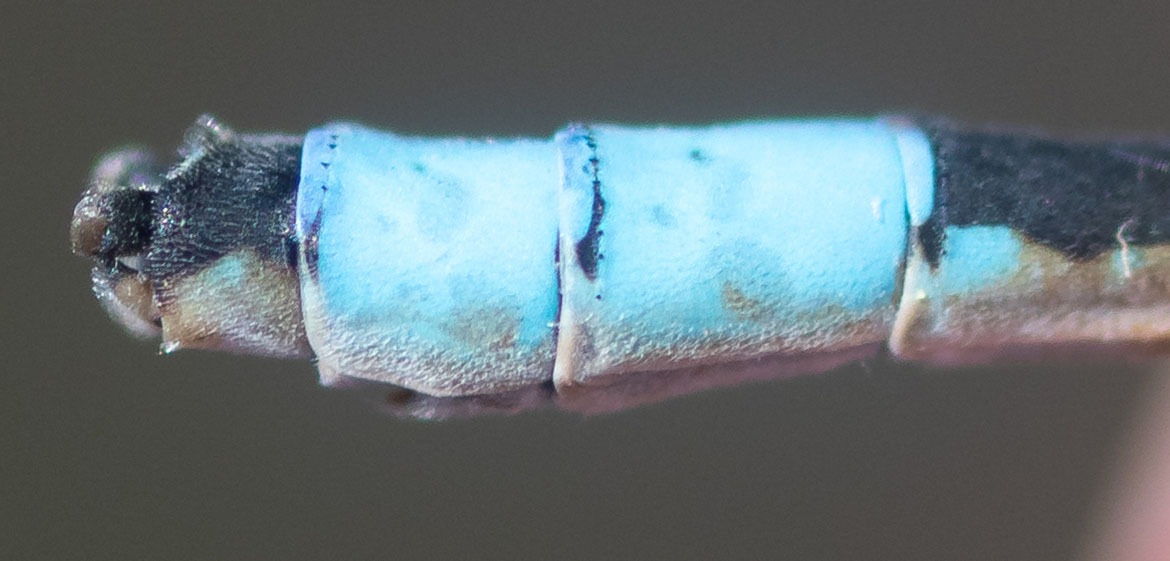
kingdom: Animalia
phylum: Arthropoda
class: Insecta
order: Odonata
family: Coenagrionidae
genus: Enallagma
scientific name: Enallagma carunculatum
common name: Tule bluet
